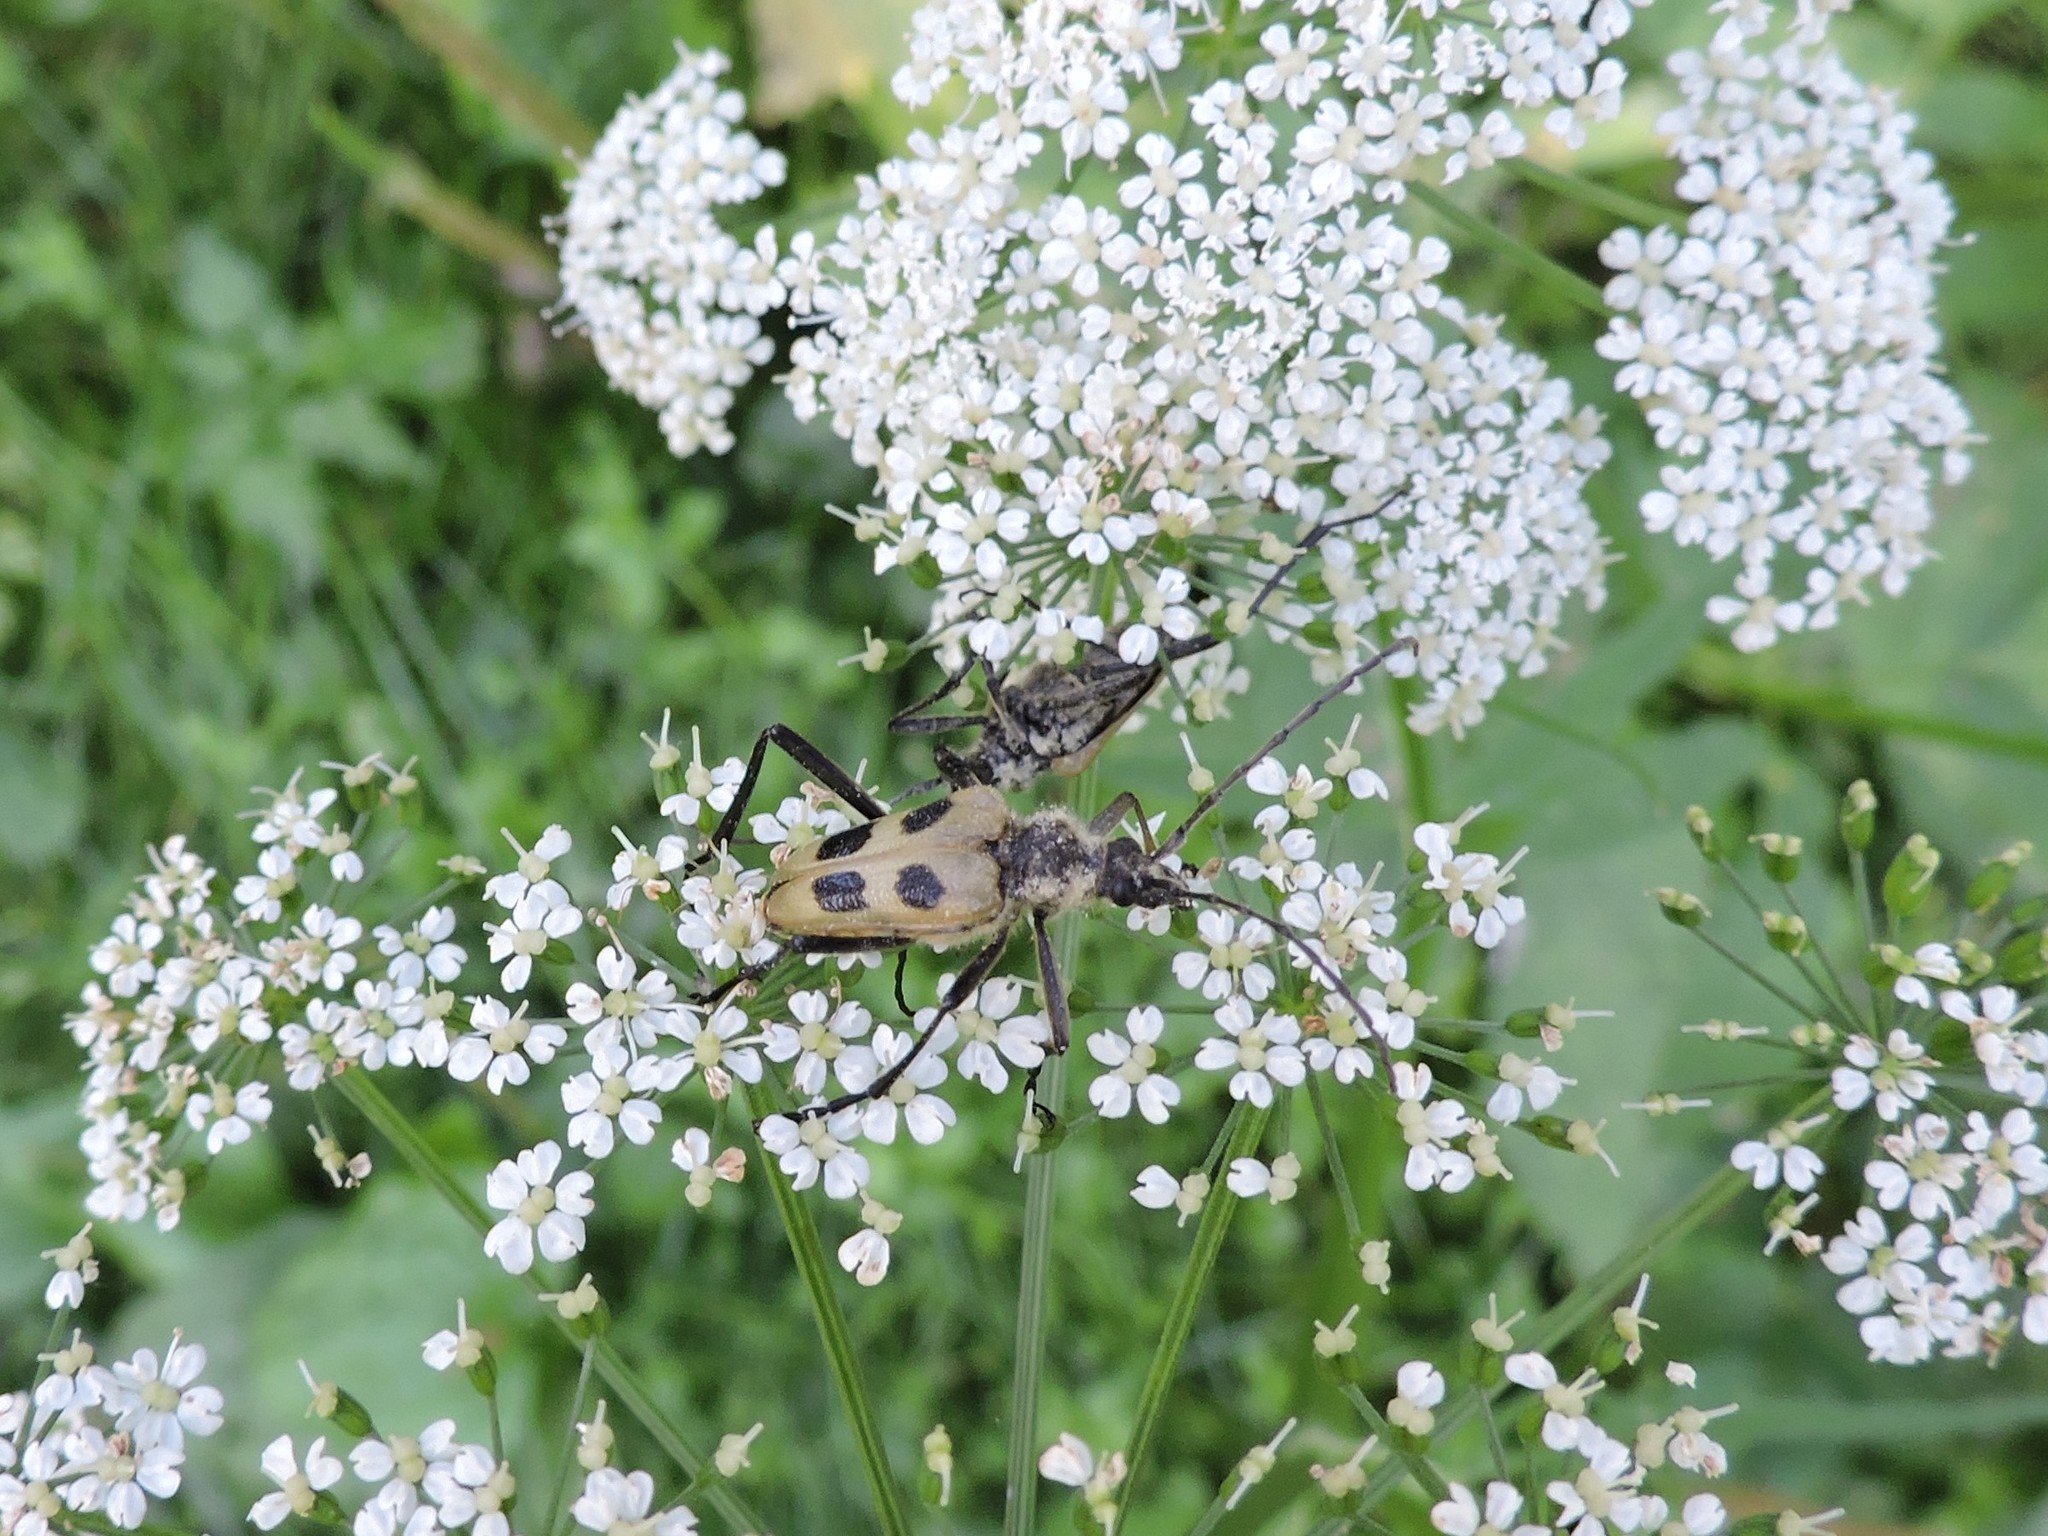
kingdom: Animalia
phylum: Arthropoda
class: Insecta
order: Coleoptera
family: Cerambycidae
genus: Pachyta
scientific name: Pachyta quadrimaculata
